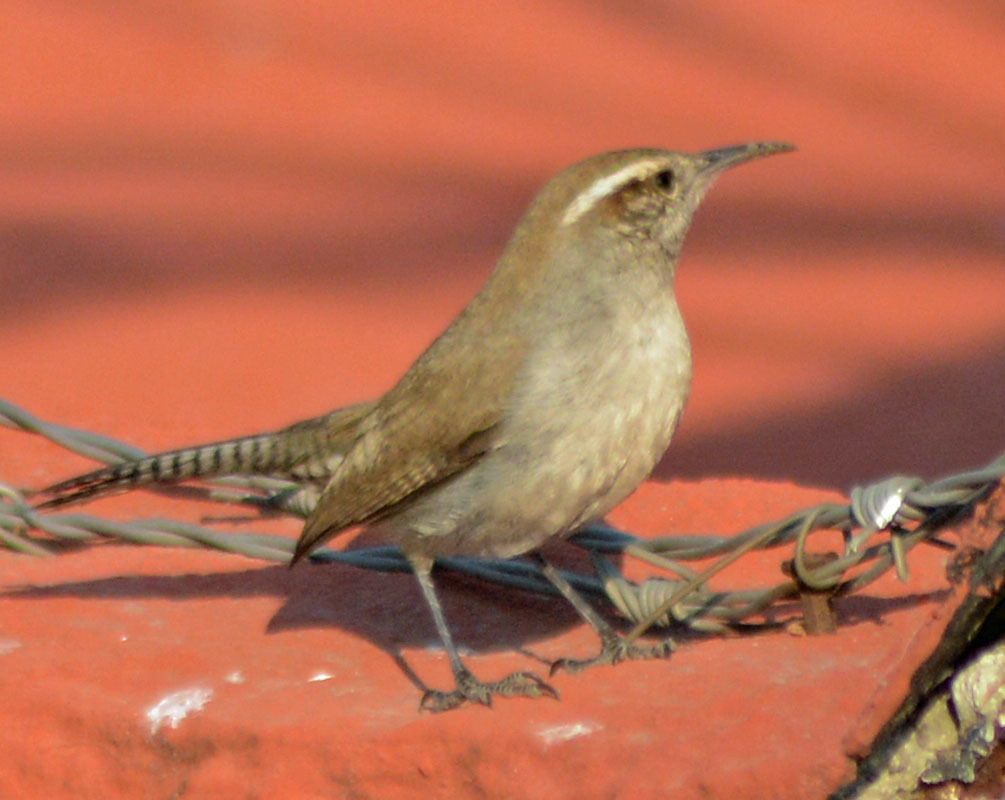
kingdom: Animalia
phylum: Chordata
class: Aves
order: Passeriformes
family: Troglodytidae
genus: Thryomanes
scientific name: Thryomanes bewickii
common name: Bewick's wren
